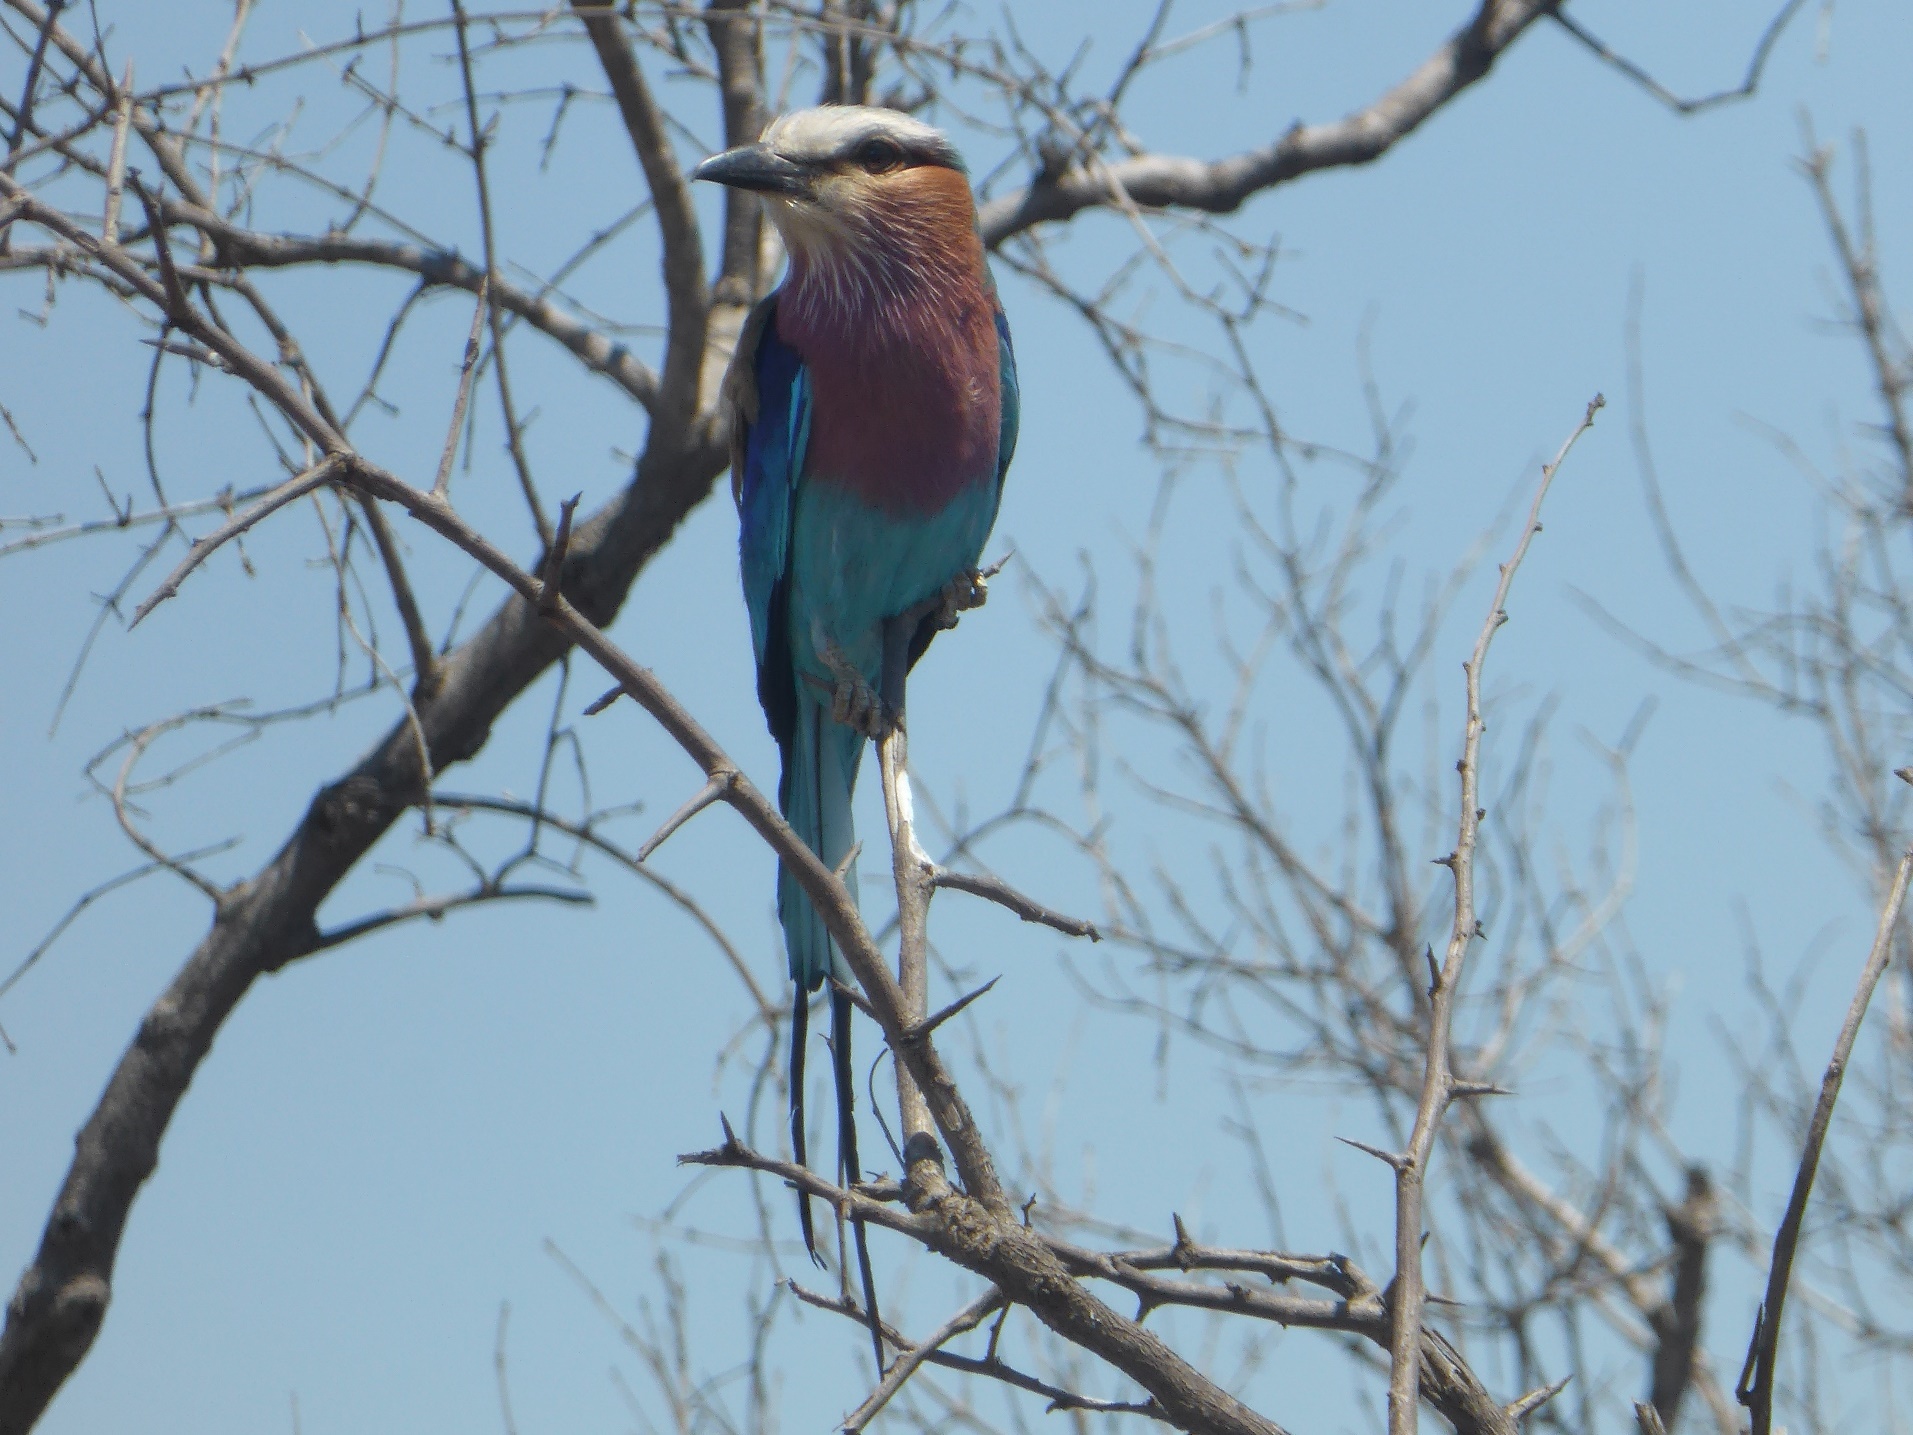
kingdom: Animalia
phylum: Chordata
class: Aves
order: Coraciiformes
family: Coraciidae
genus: Coracias
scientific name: Coracias caudatus
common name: Lilac-breasted roller
